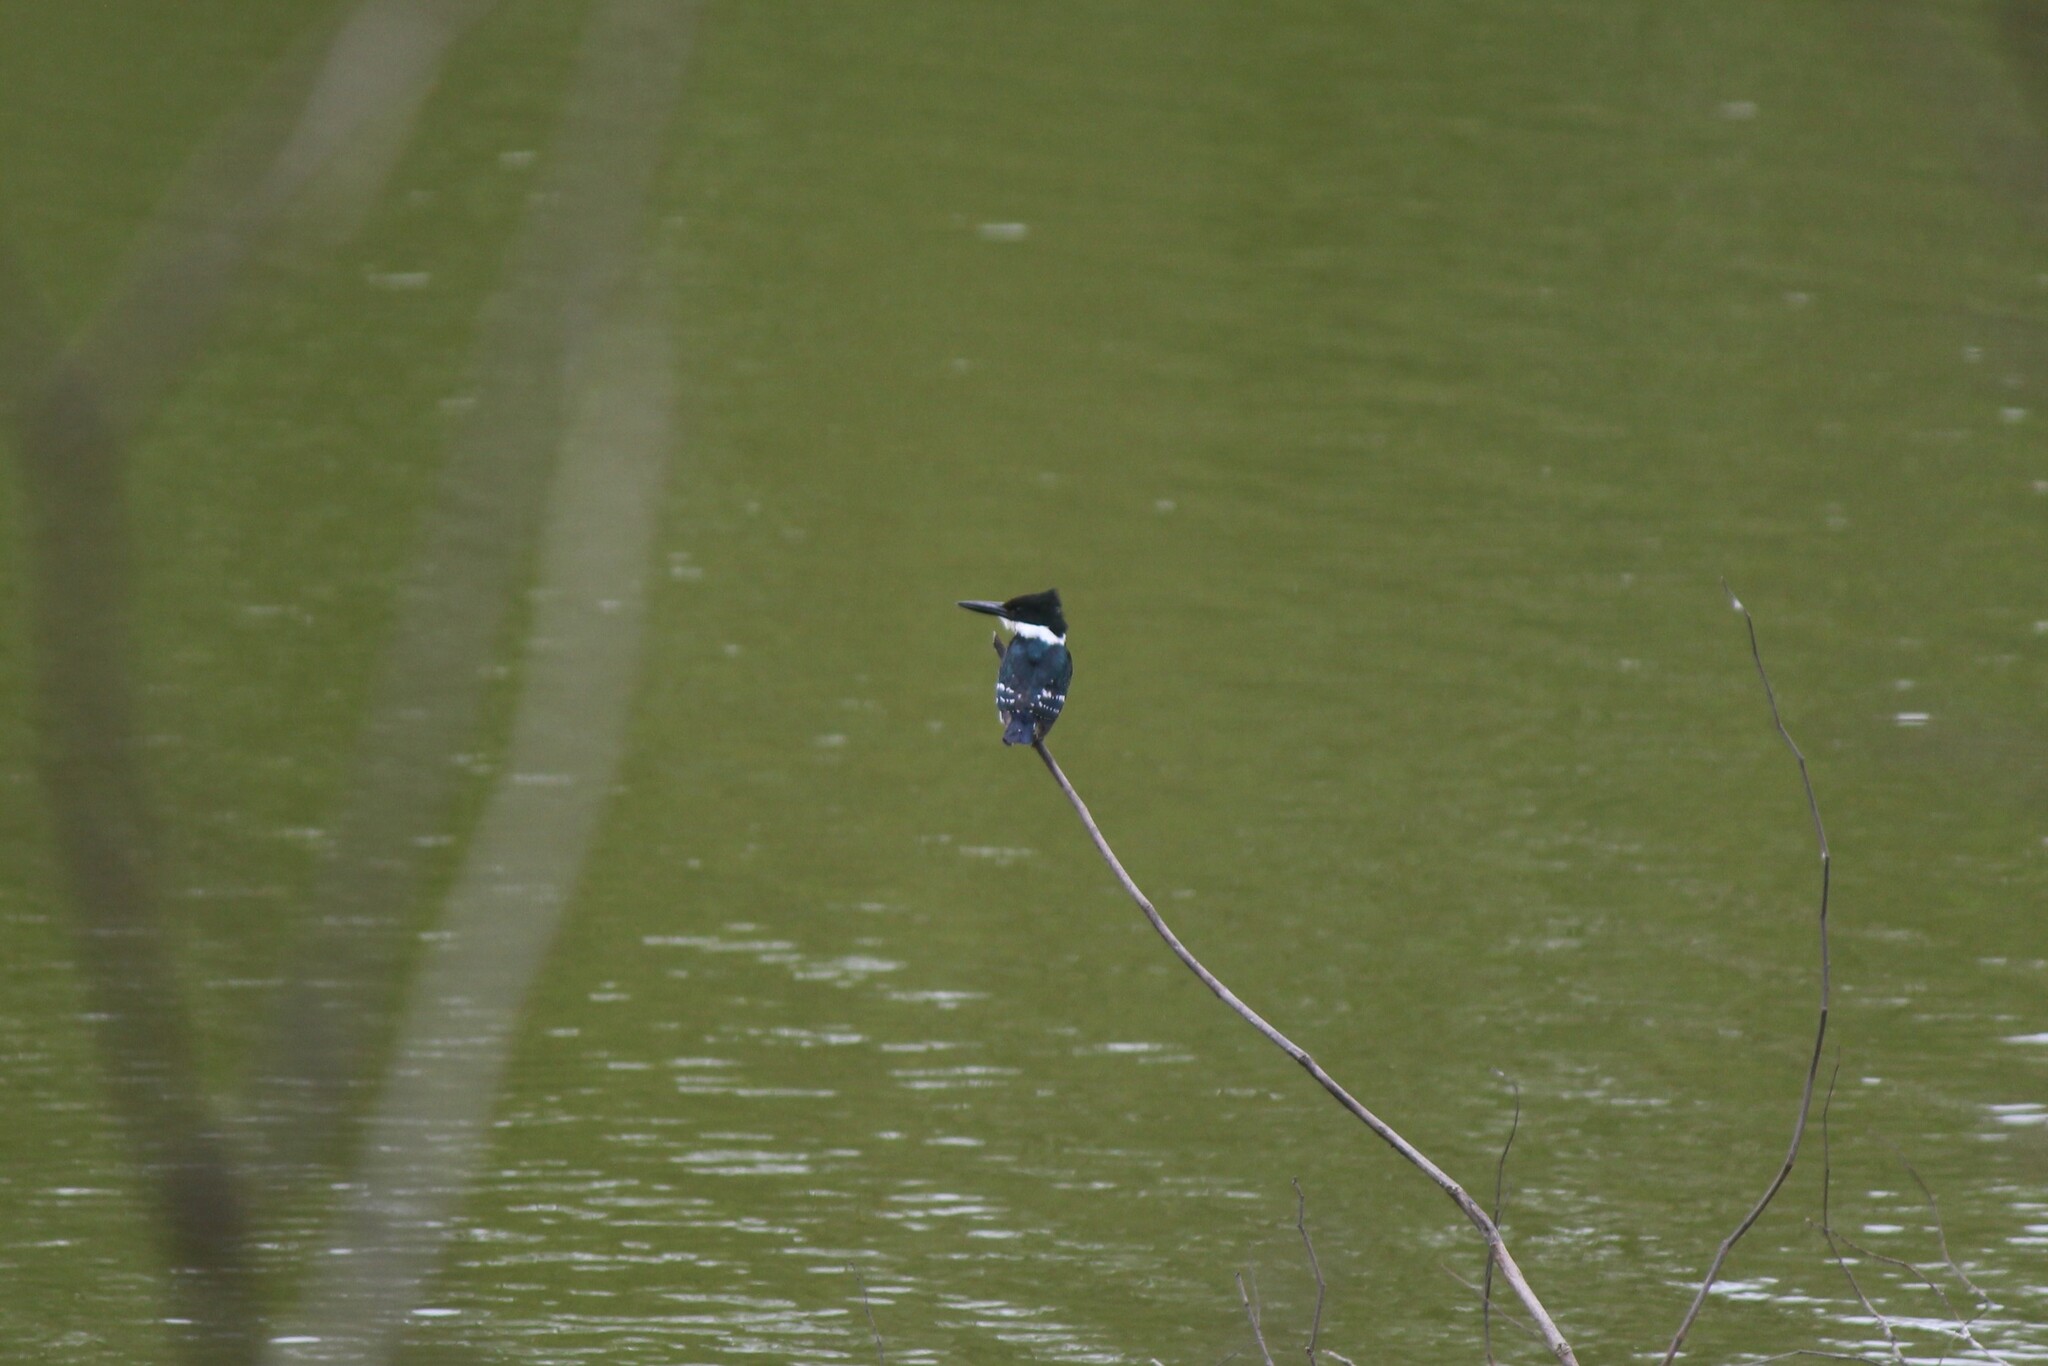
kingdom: Animalia
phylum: Chordata
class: Aves
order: Coraciiformes
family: Alcedinidae
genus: Chloroceryle
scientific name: Chloroceryle americana
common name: Green kingfisher
